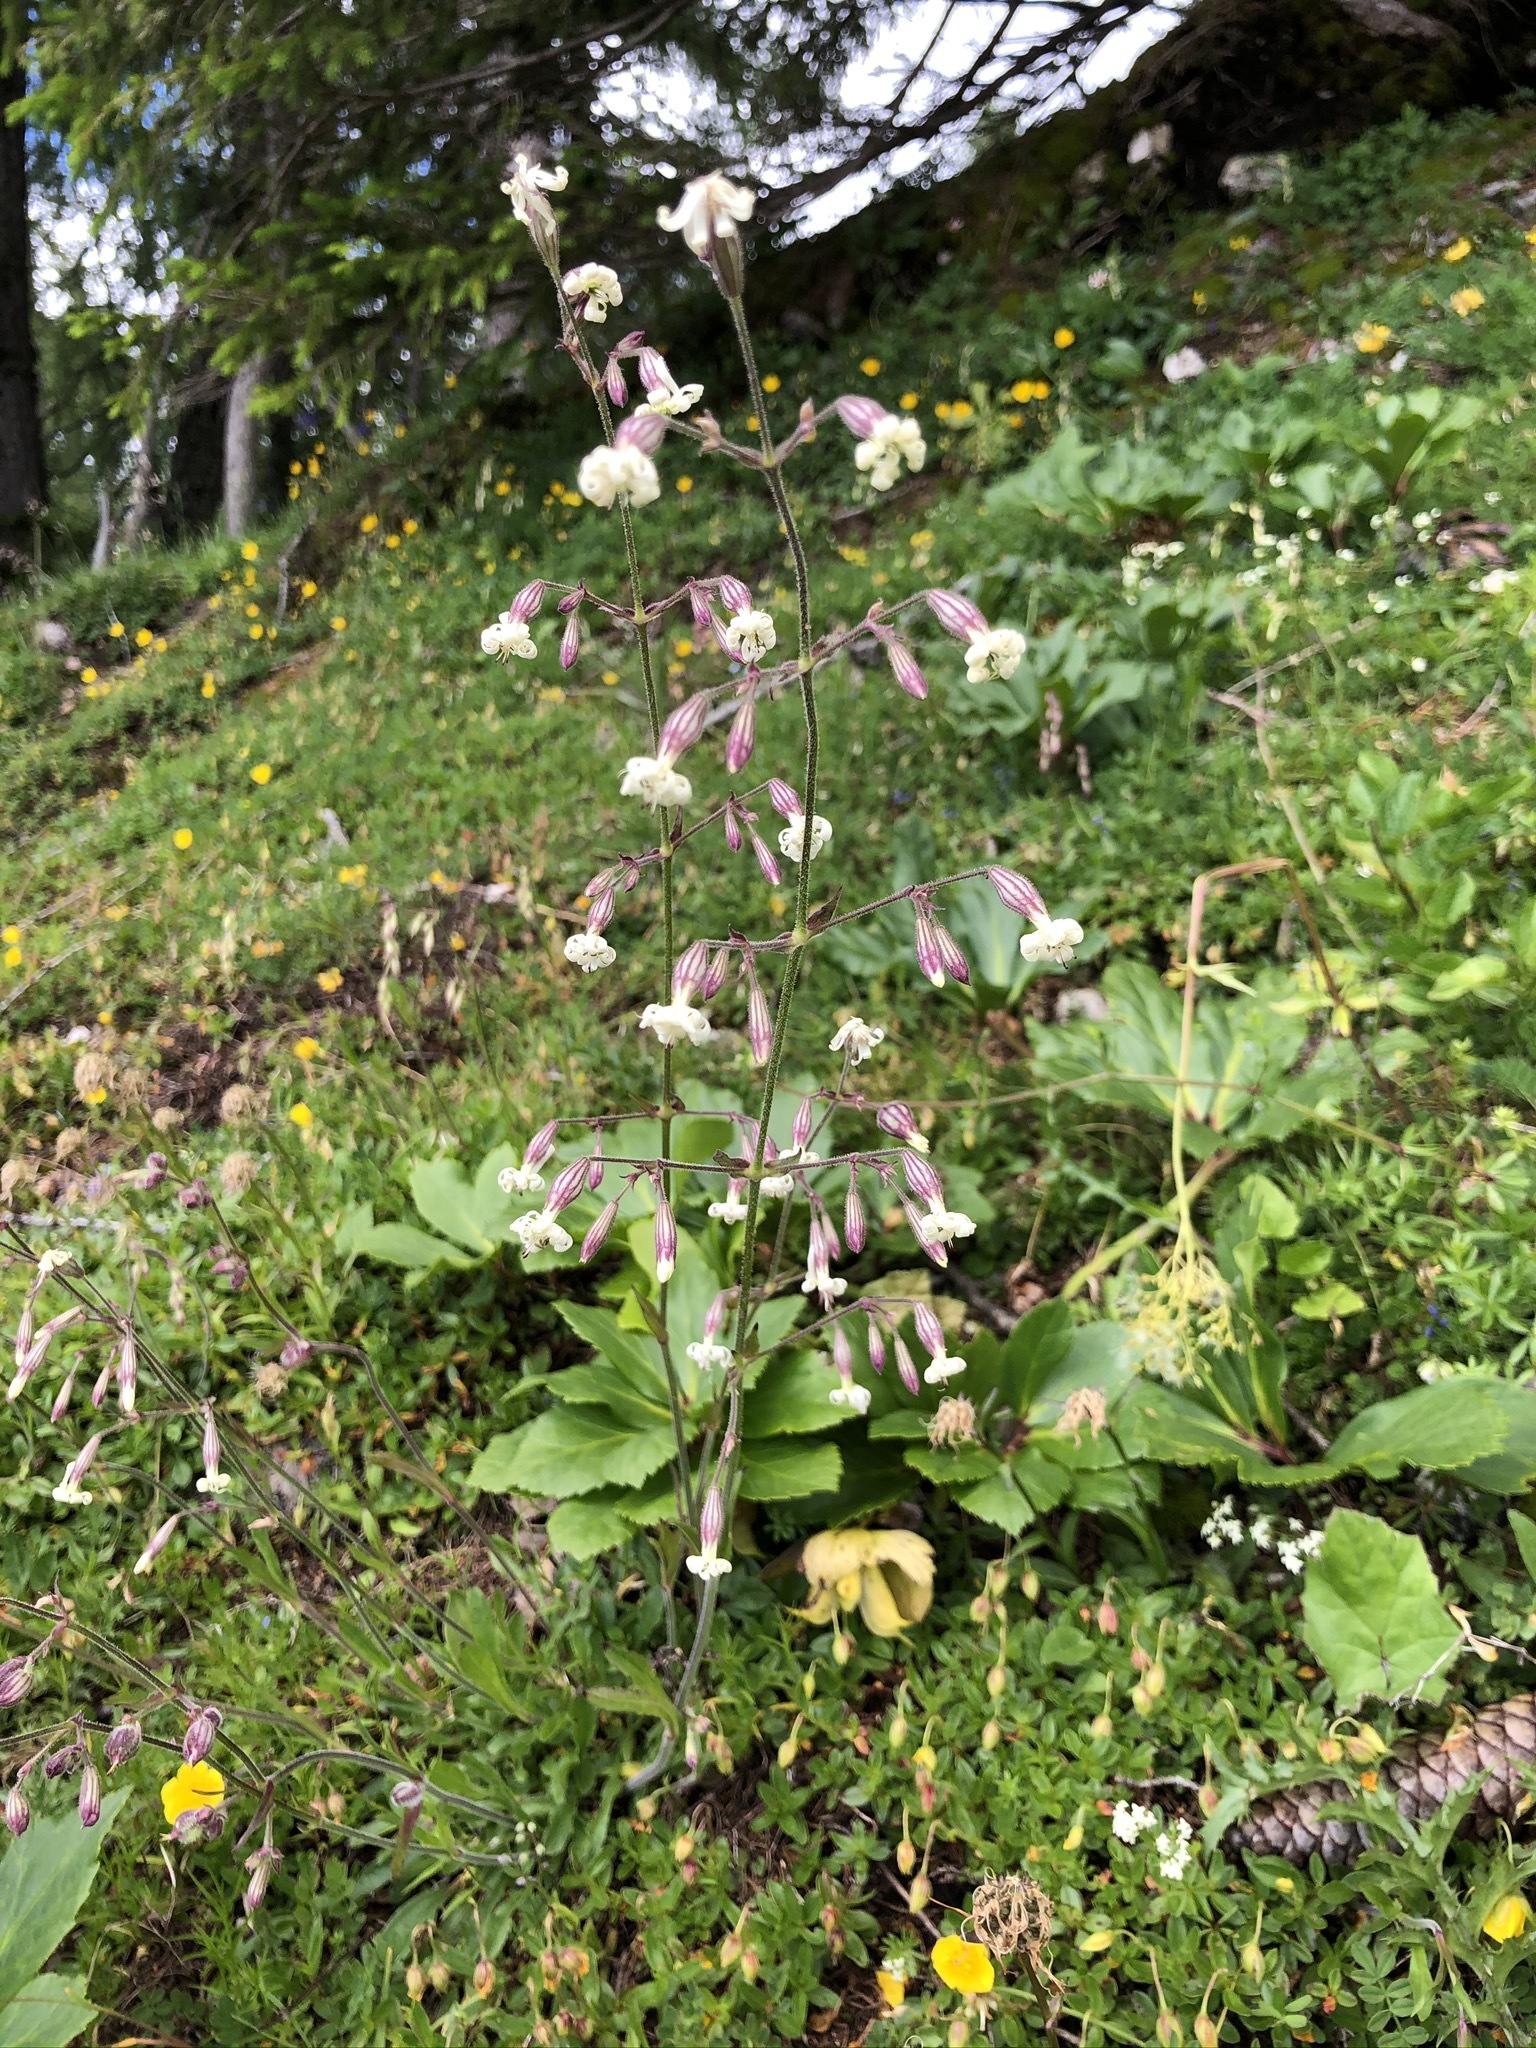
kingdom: Plantae
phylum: Tracheophyta
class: Magnoliopsida
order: Caryophyllales
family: Caryophyllaceae
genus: Silene
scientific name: Silene nutans
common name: Nottingham catchfly
